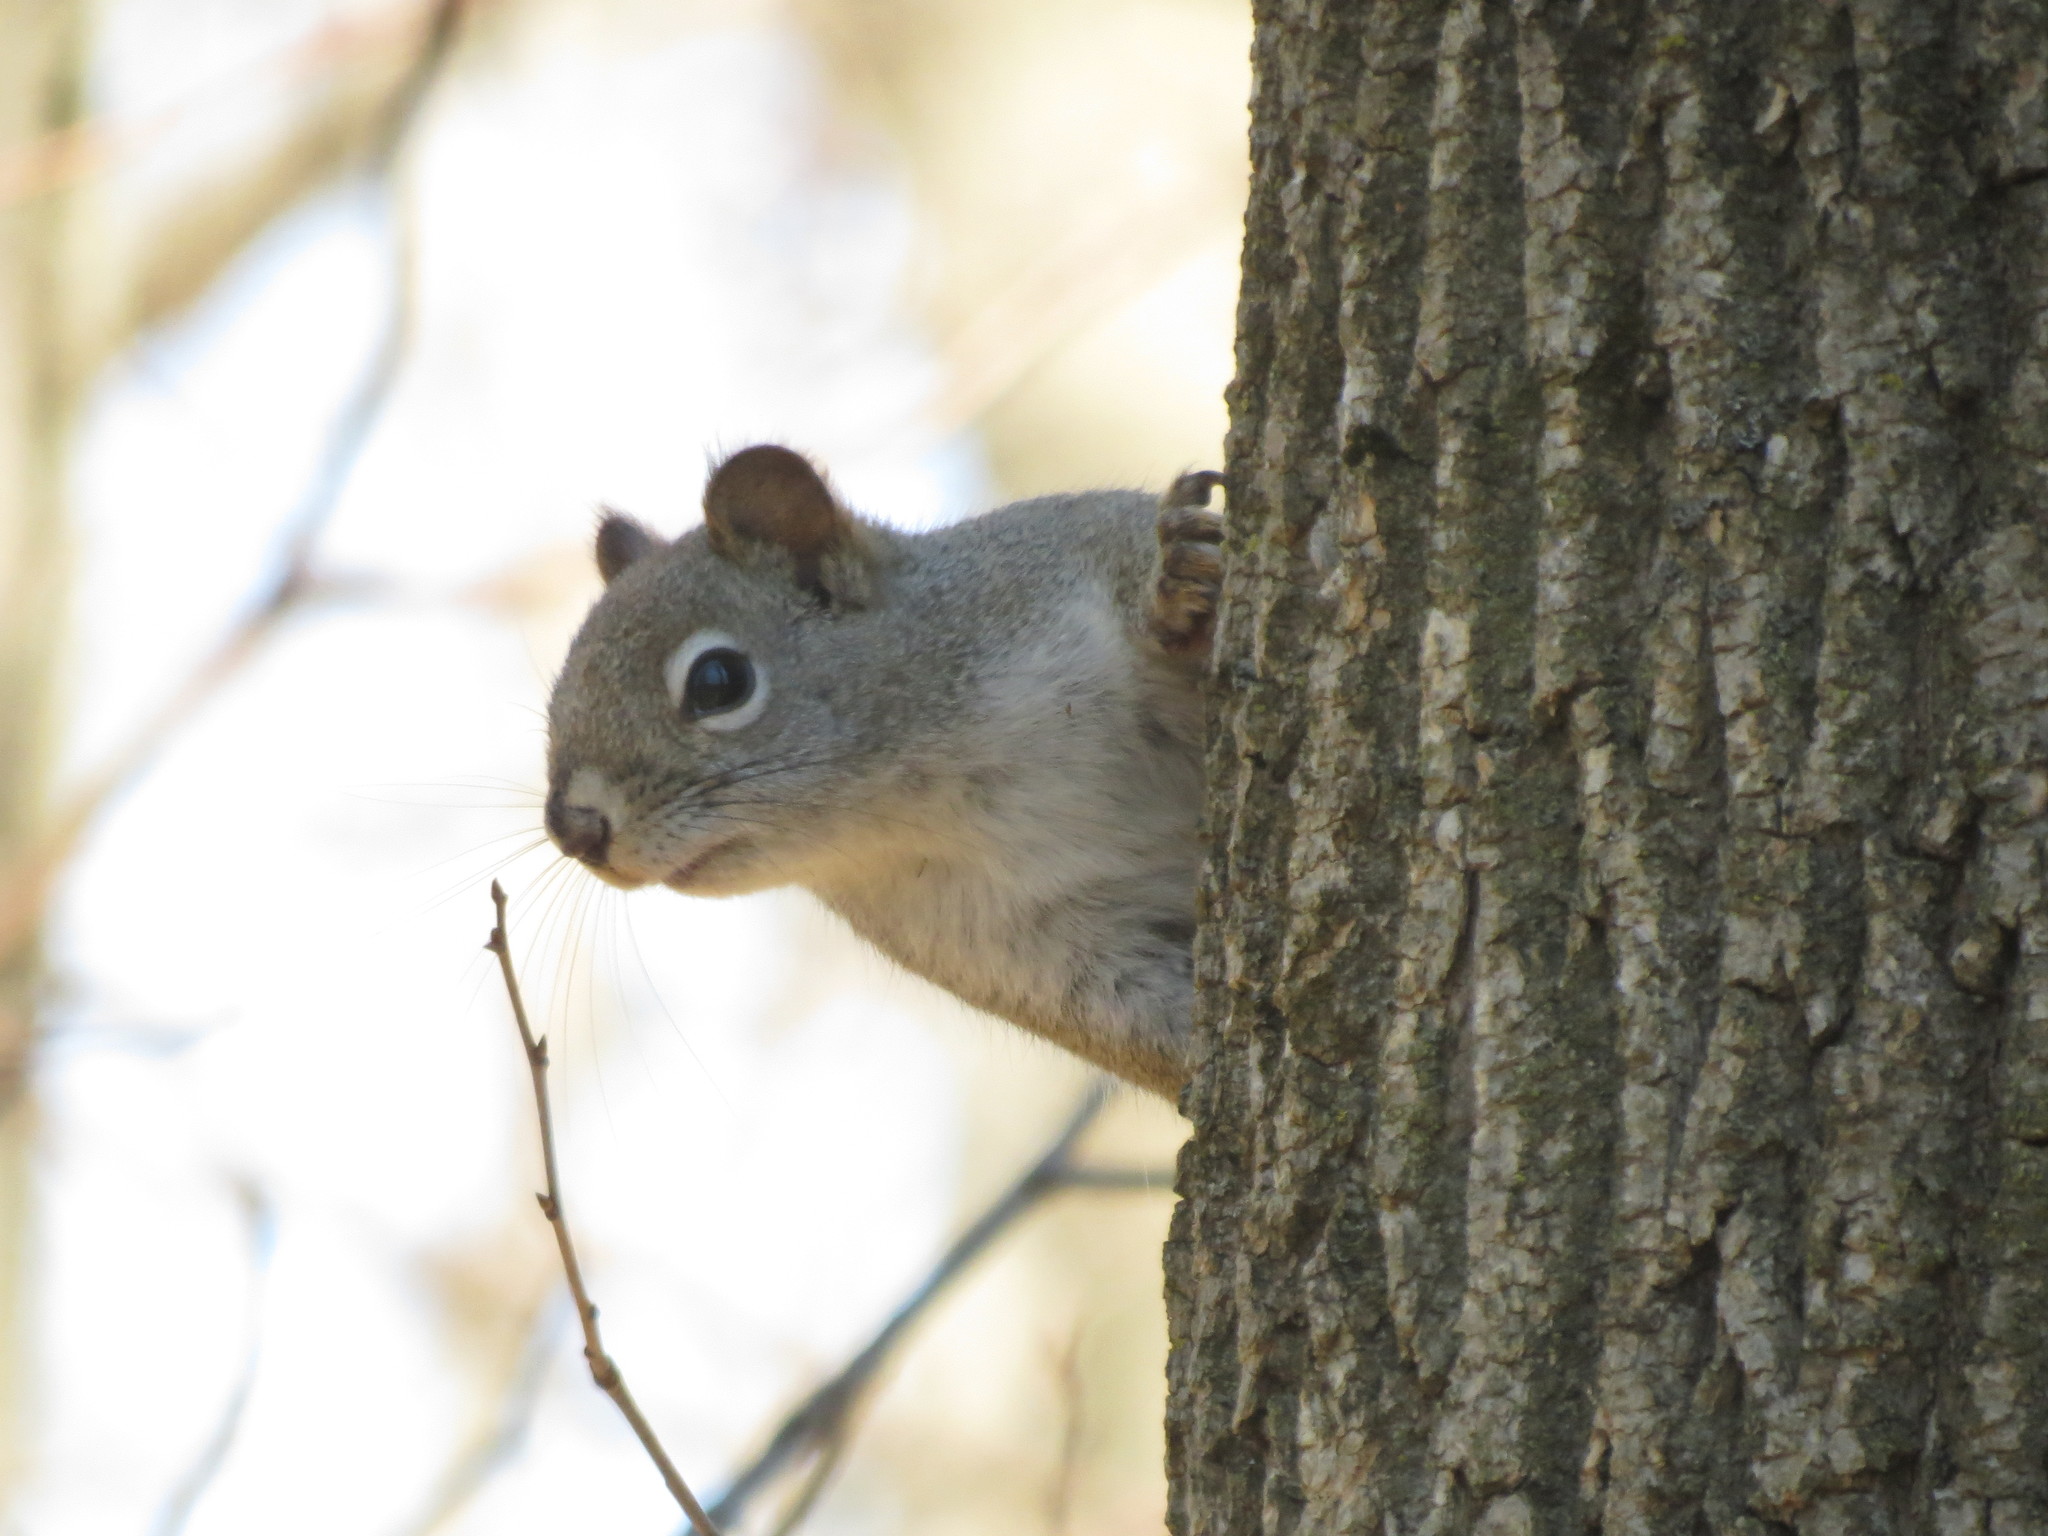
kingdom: Animalia
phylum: Chordata
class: Mammalia
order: Rodentia
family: Sciuridae
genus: Tamiasciurus
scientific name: Tamiasciurus hudsonicus
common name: Red squirrel
